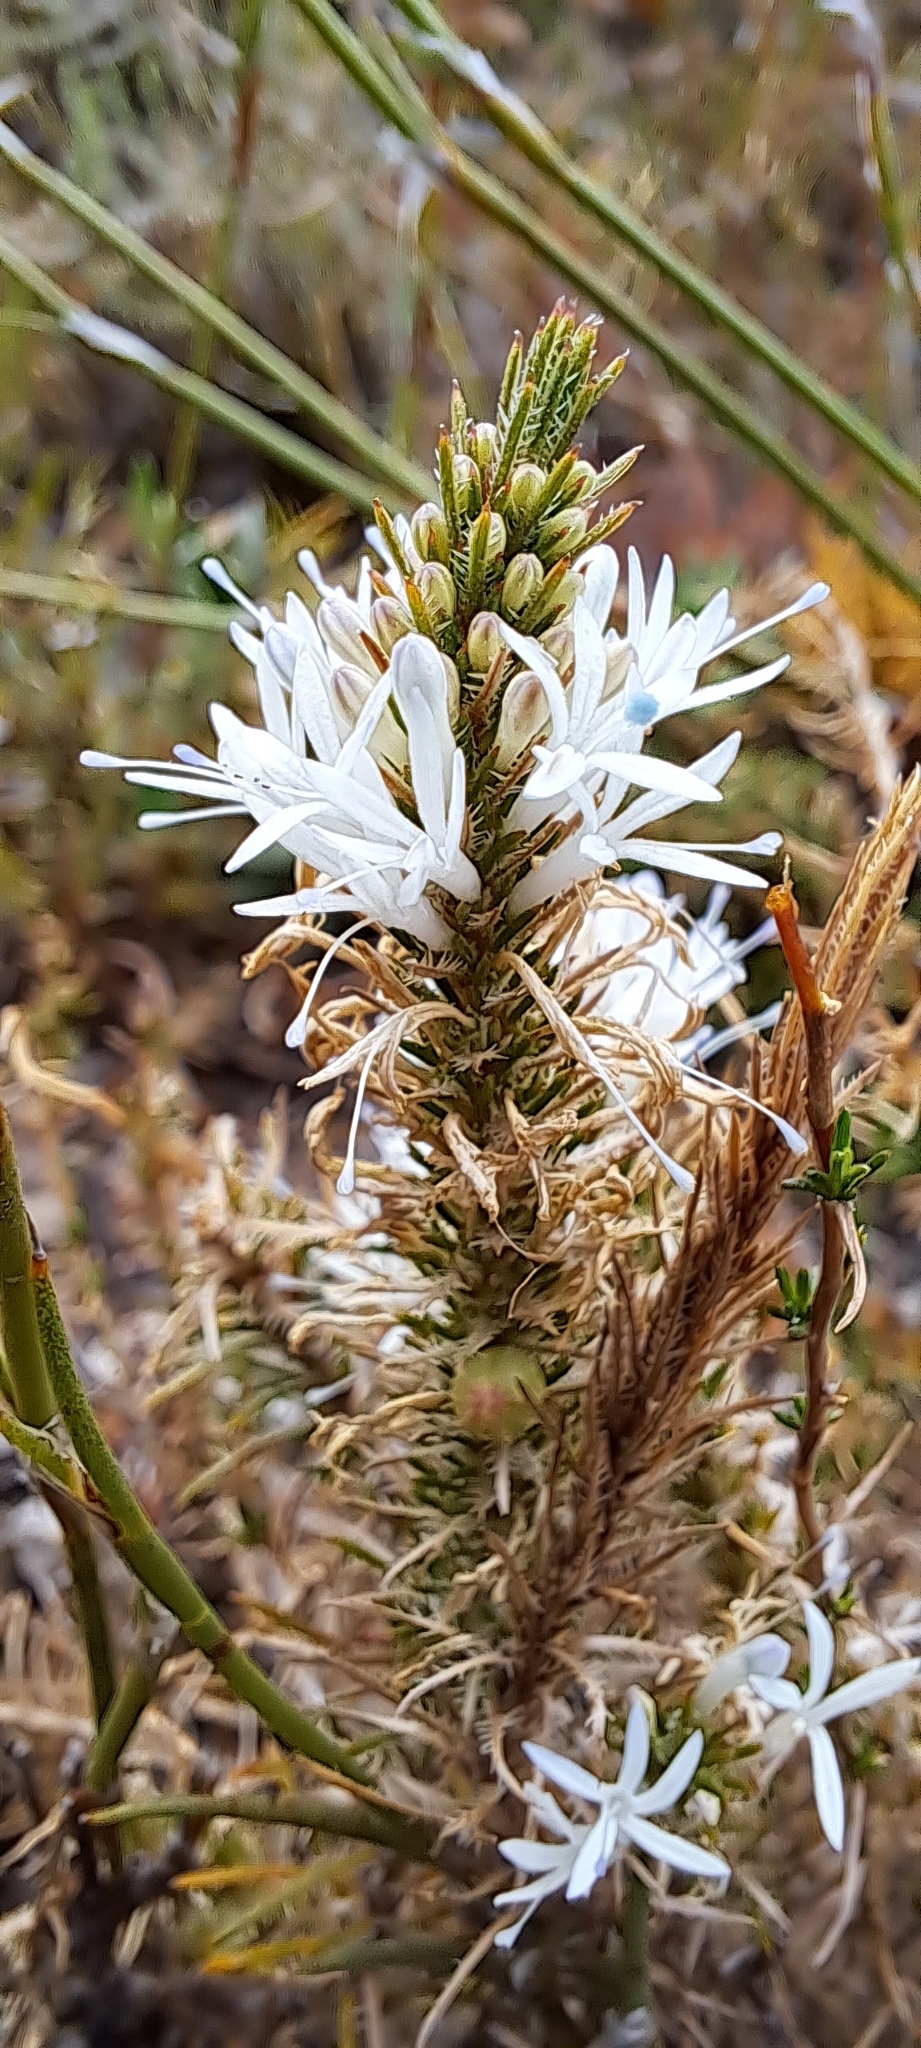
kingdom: Plantae
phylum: Tracheophyta
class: Magnoliopsida
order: Asterales
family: Campanulaceae
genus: Merciera
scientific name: Merciera leptoloba
